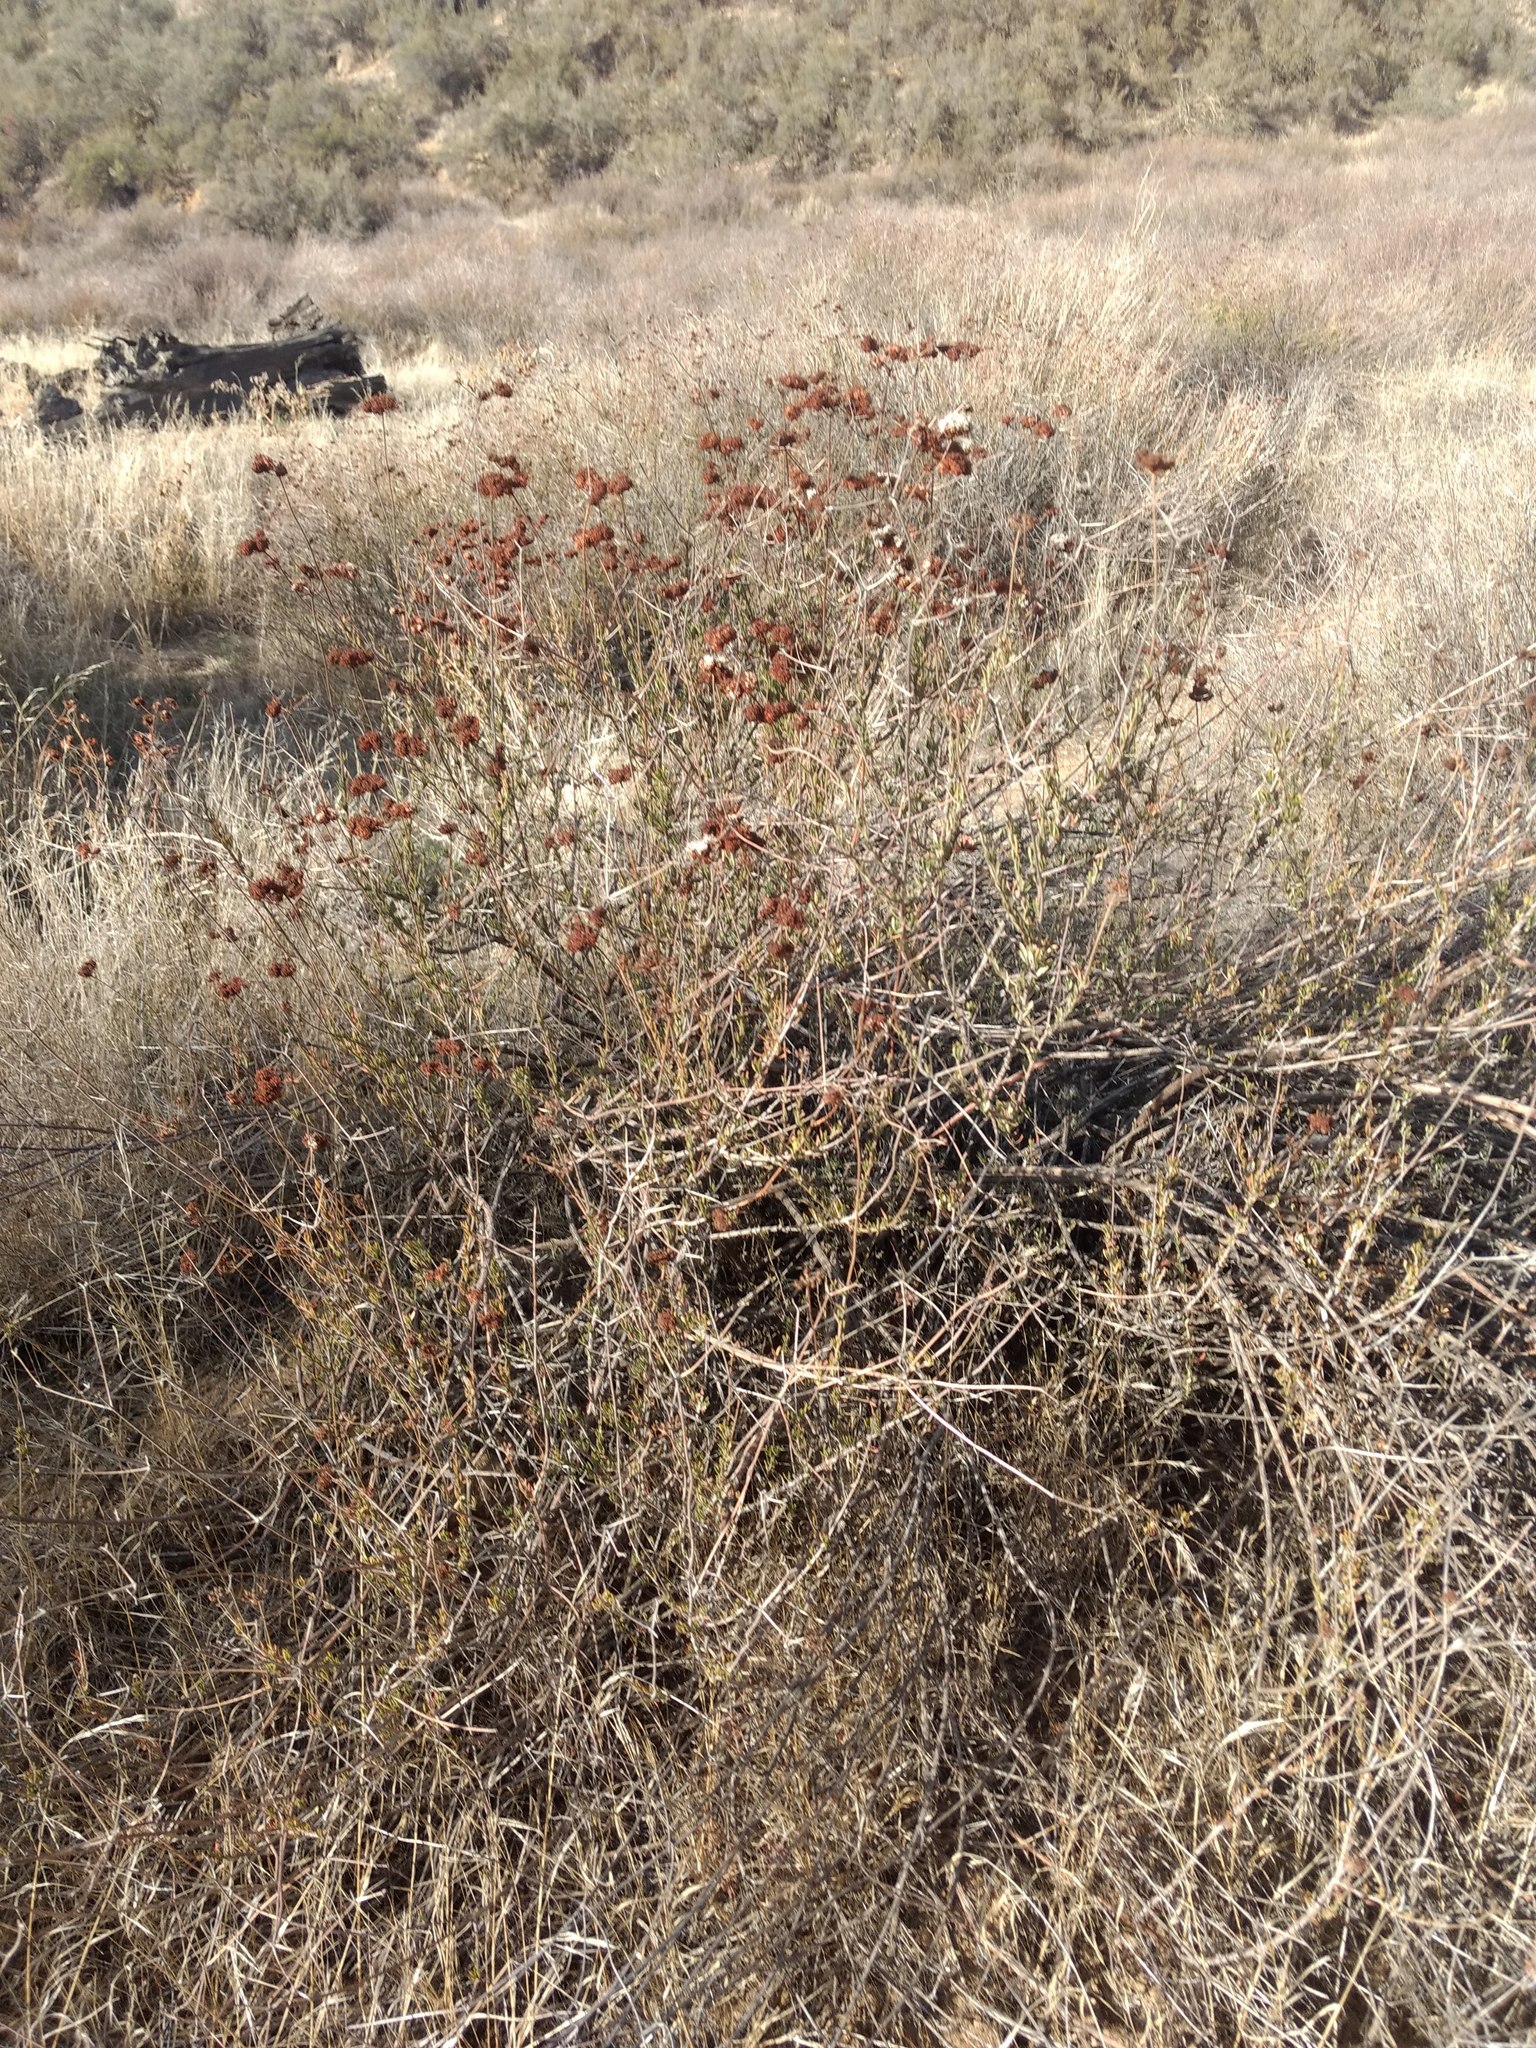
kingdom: Plantae
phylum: Tracheophyta
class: Magnoliopsida
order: Caryophyllales
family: Polygonaceae
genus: Eriogonum
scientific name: Eriogonum fasciculatum
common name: California wild buckwheat
